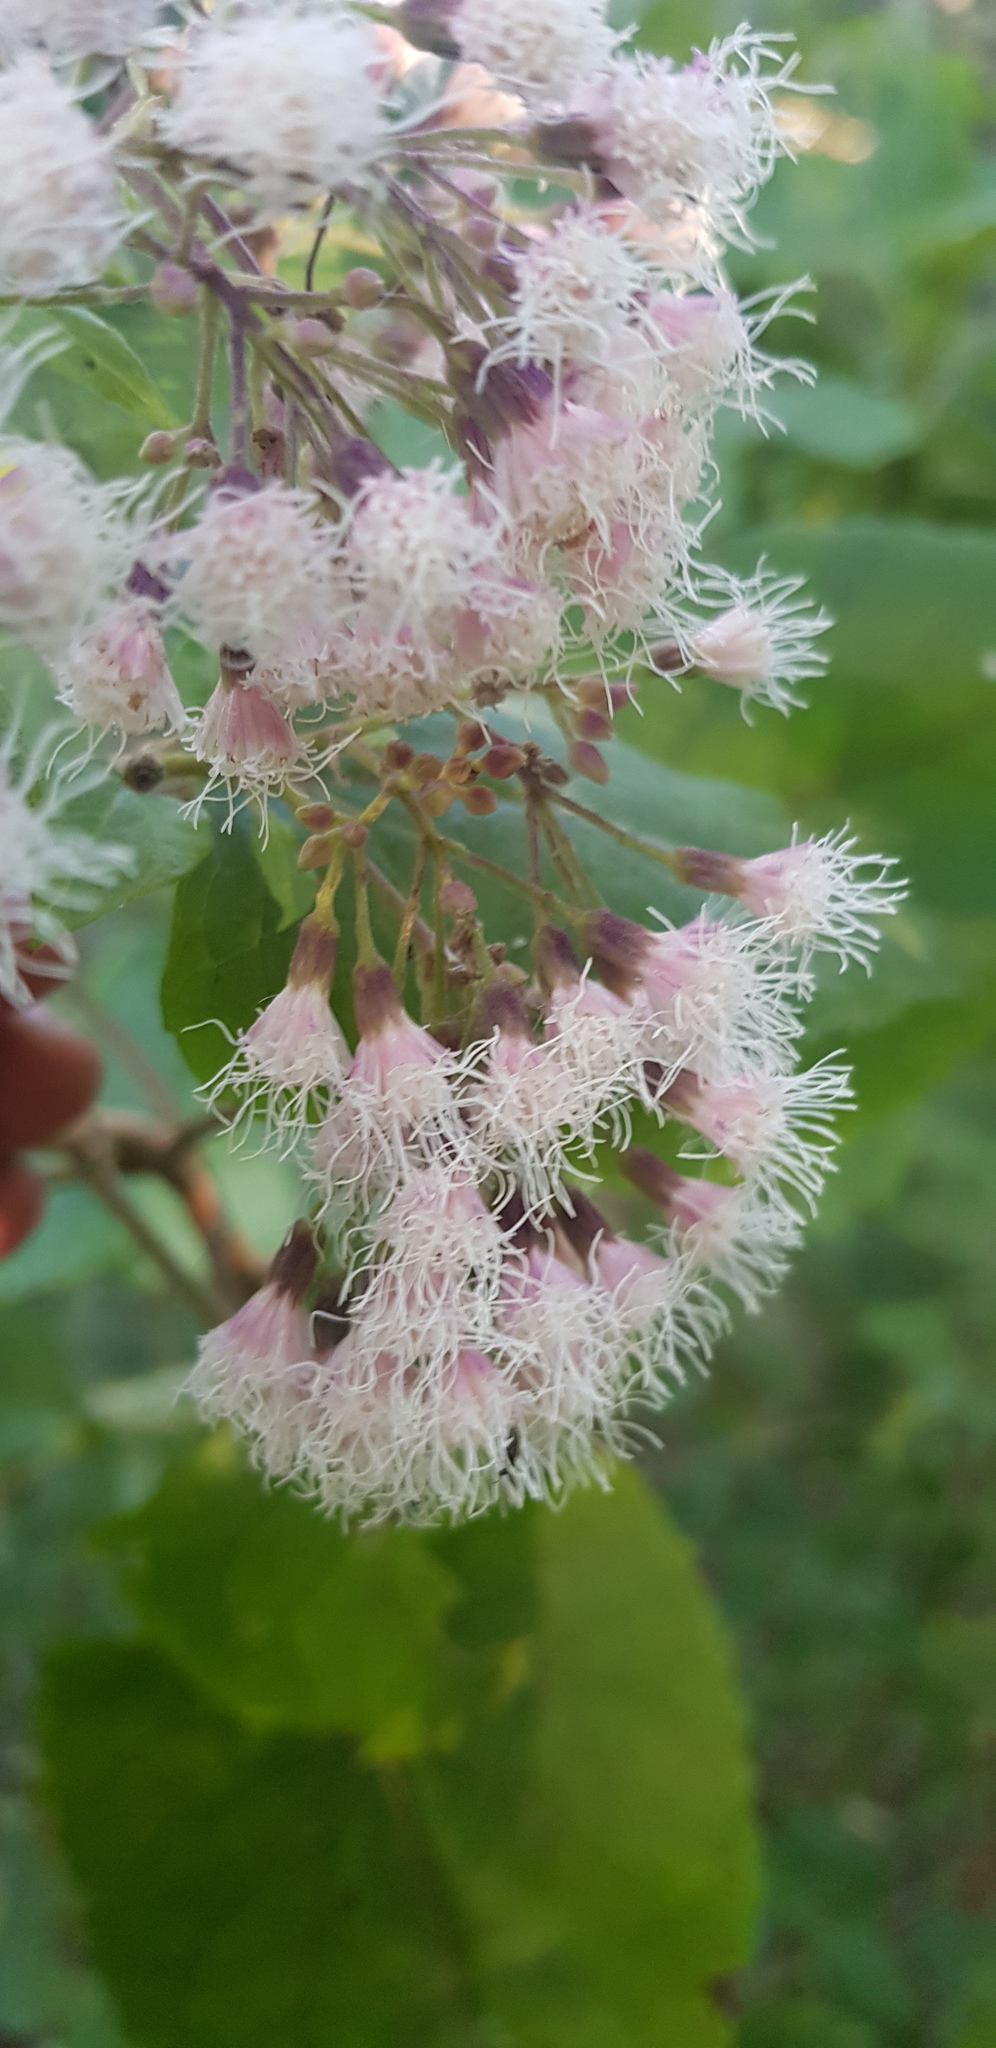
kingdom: Plantae
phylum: Tracheophyta
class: Magnoliopsida
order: Asterales
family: Asteraceae
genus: Ageratina
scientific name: Ageratina petiolaris
